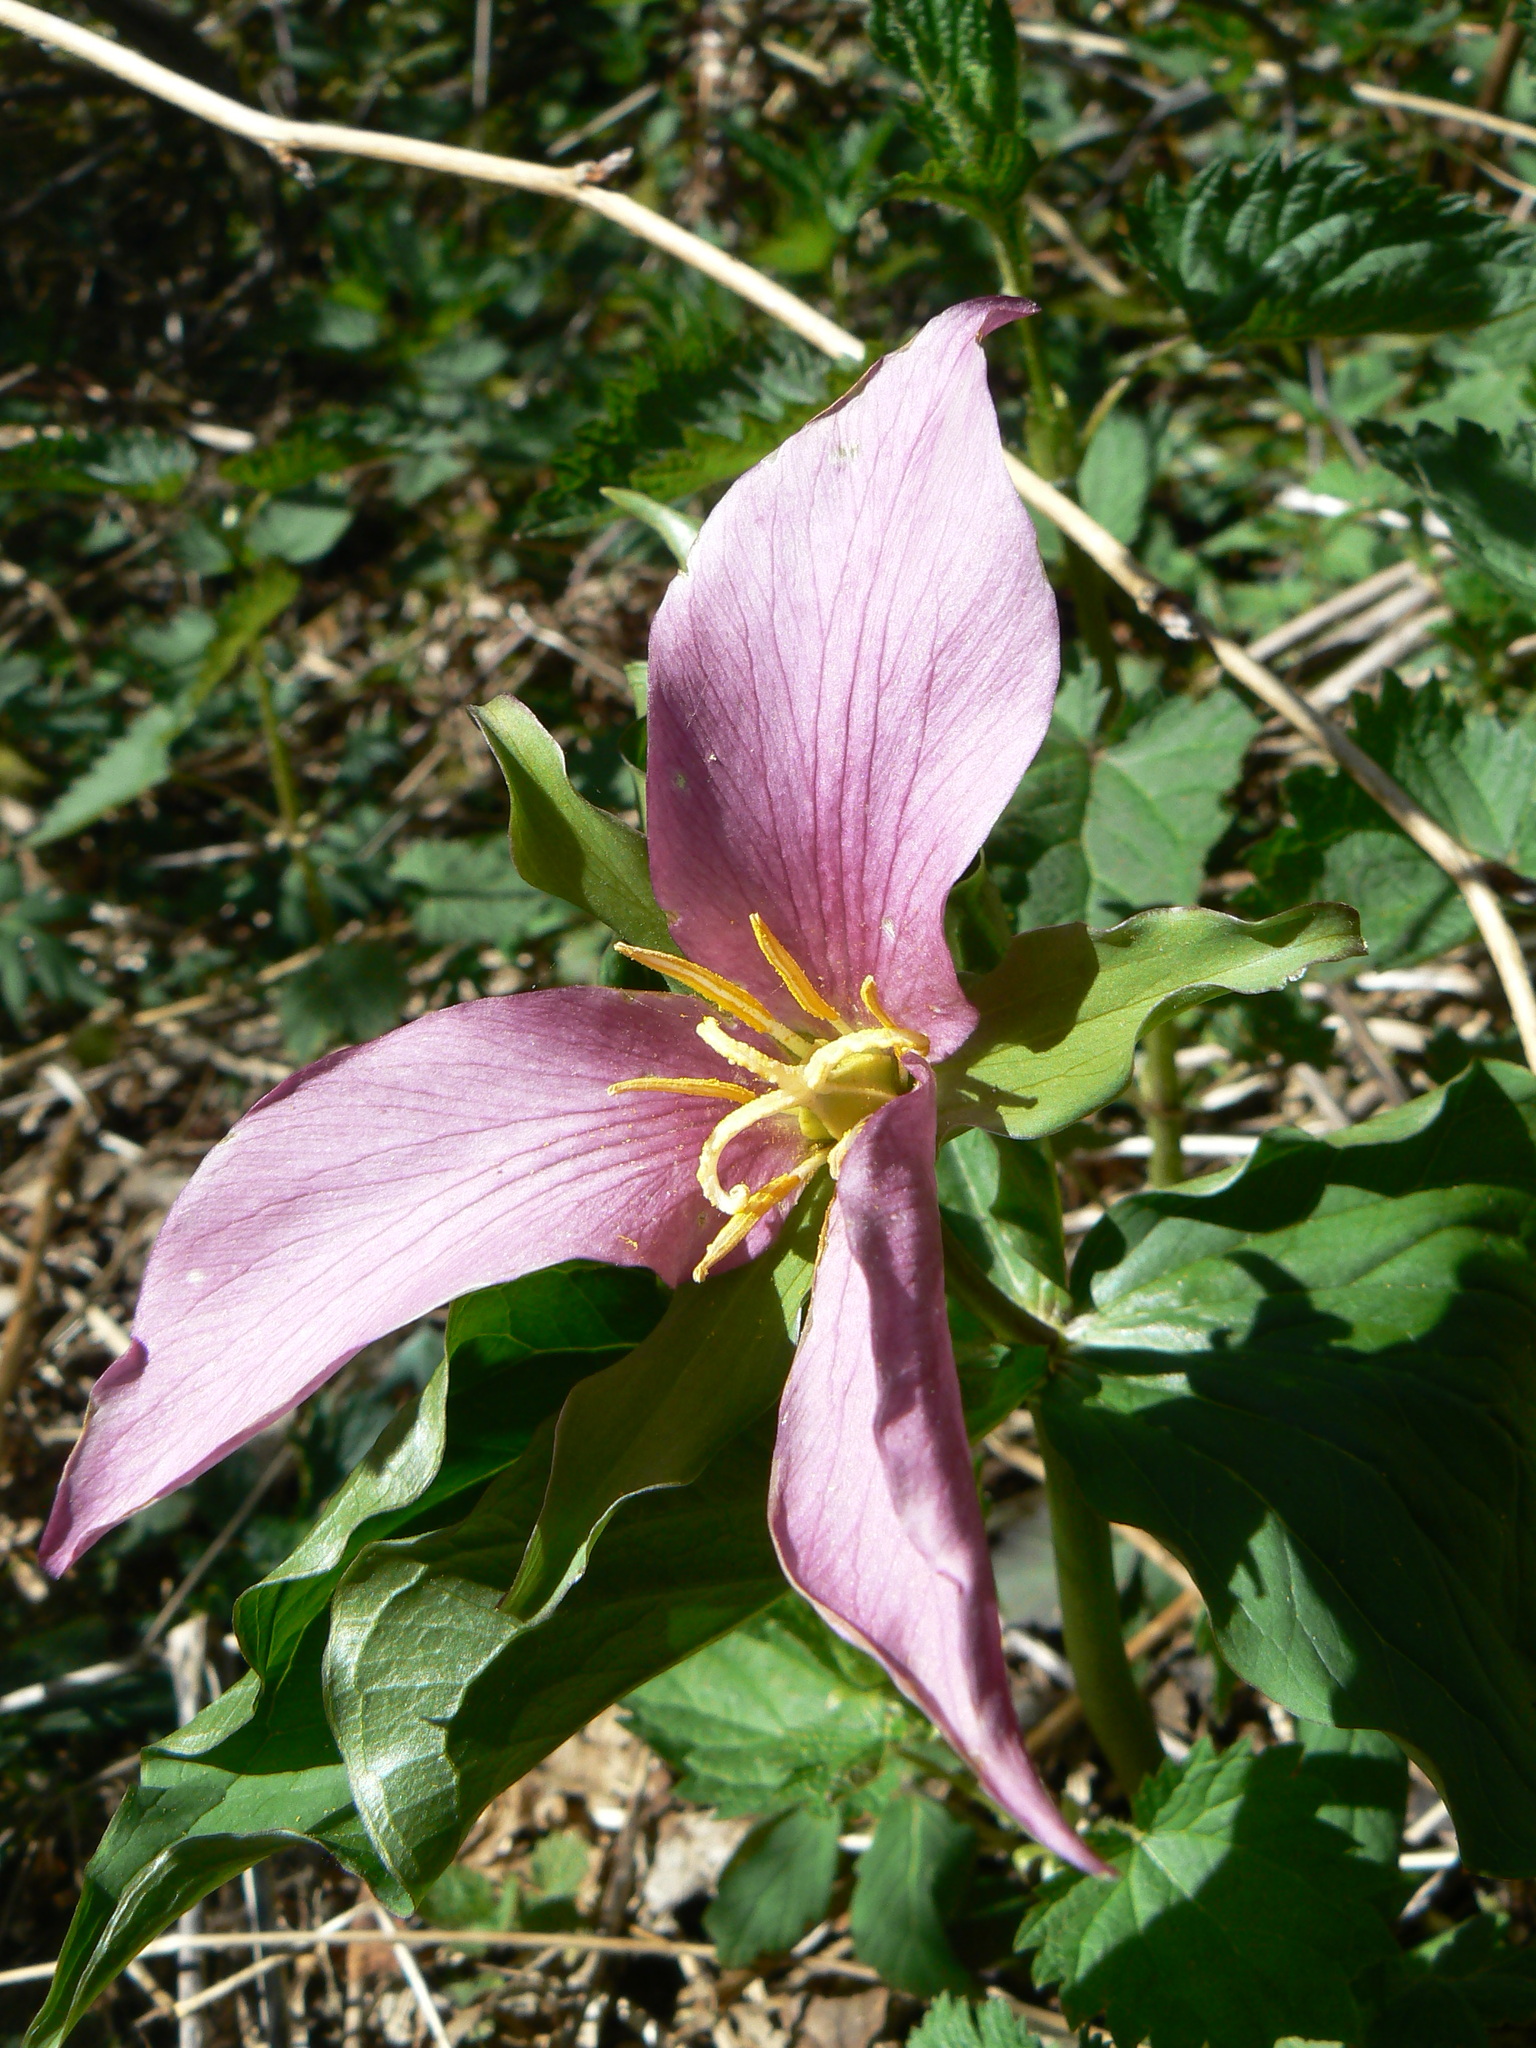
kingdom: Plantae
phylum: Tracheophyta
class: Liliopsida
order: Liliales
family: Melanthiaceae
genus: Trillium
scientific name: Trillium ovatum
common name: Pacific trillium
